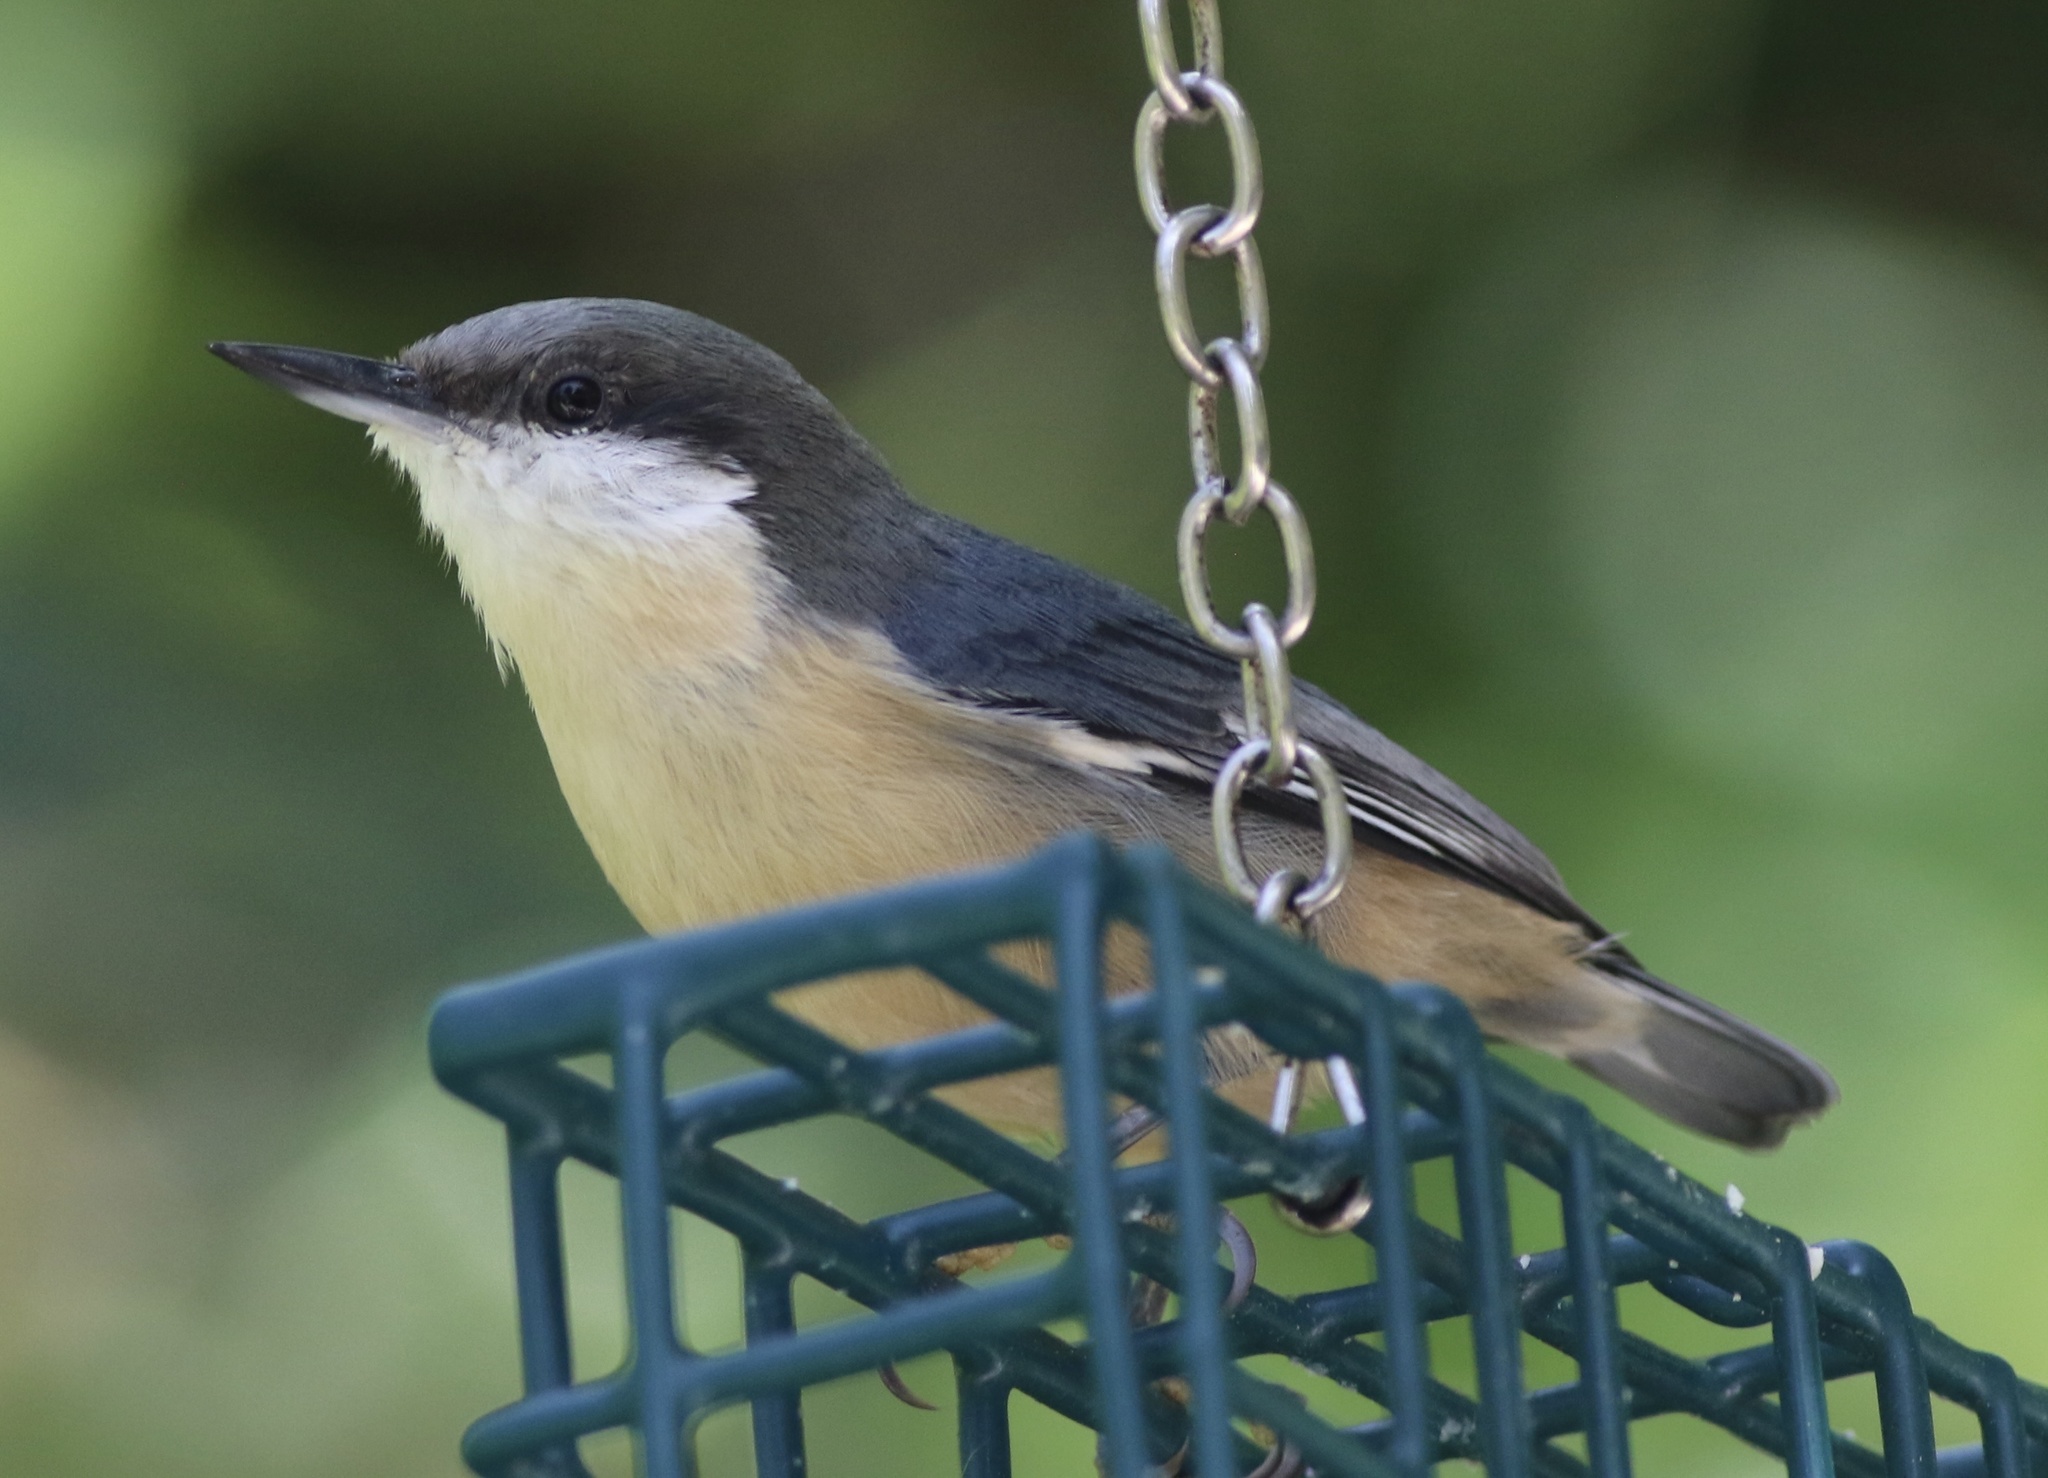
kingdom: Animalia
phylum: Chordata
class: Aves
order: Passeriformes
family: Sittidae
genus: Sitta
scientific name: Sitta pygmaea
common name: Pygmy nuthatch
